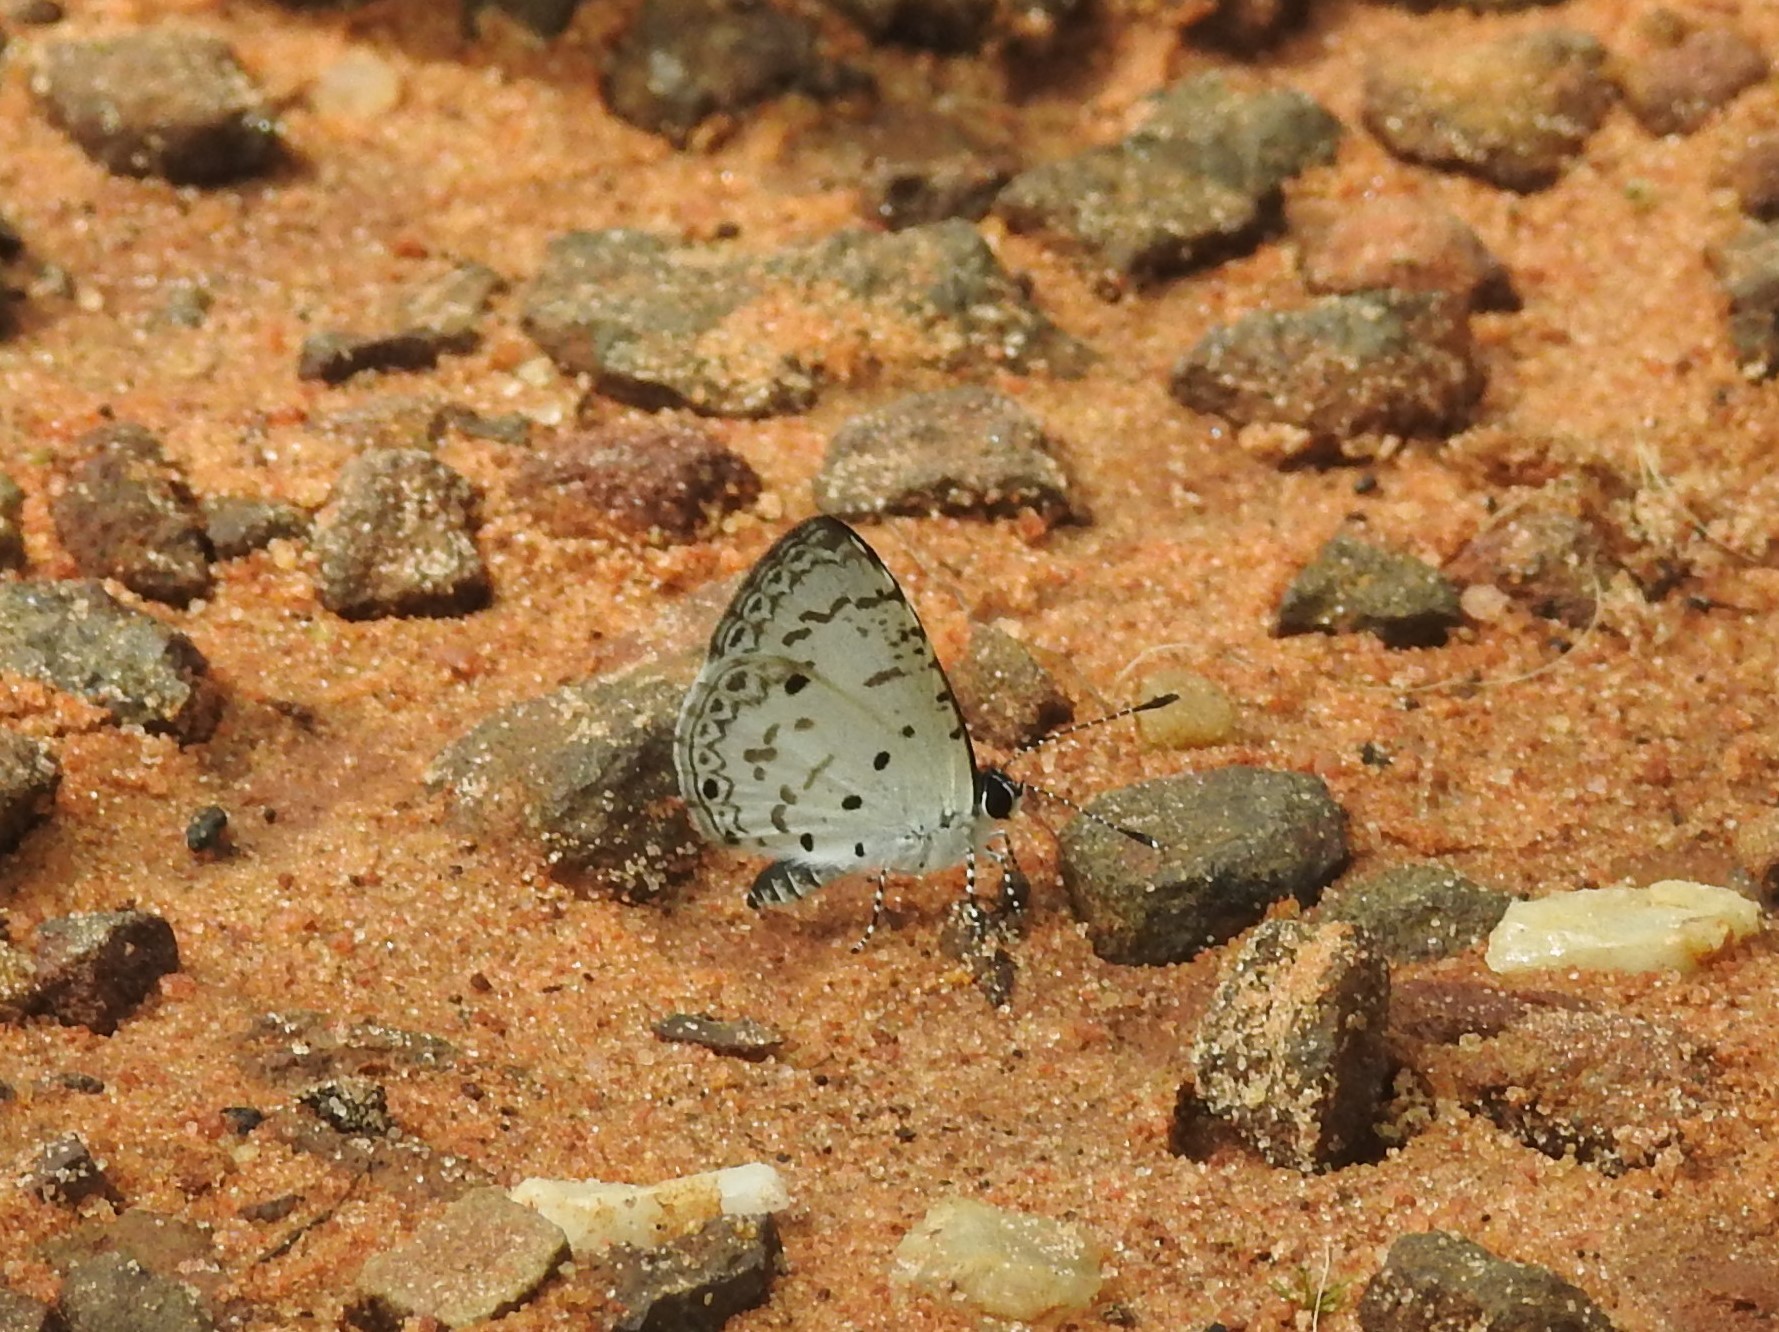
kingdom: Animalia
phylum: Arthropoda
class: Insecta
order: Lepidoptera
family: Lycaenidae
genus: Megisba
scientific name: Megisba malaya
